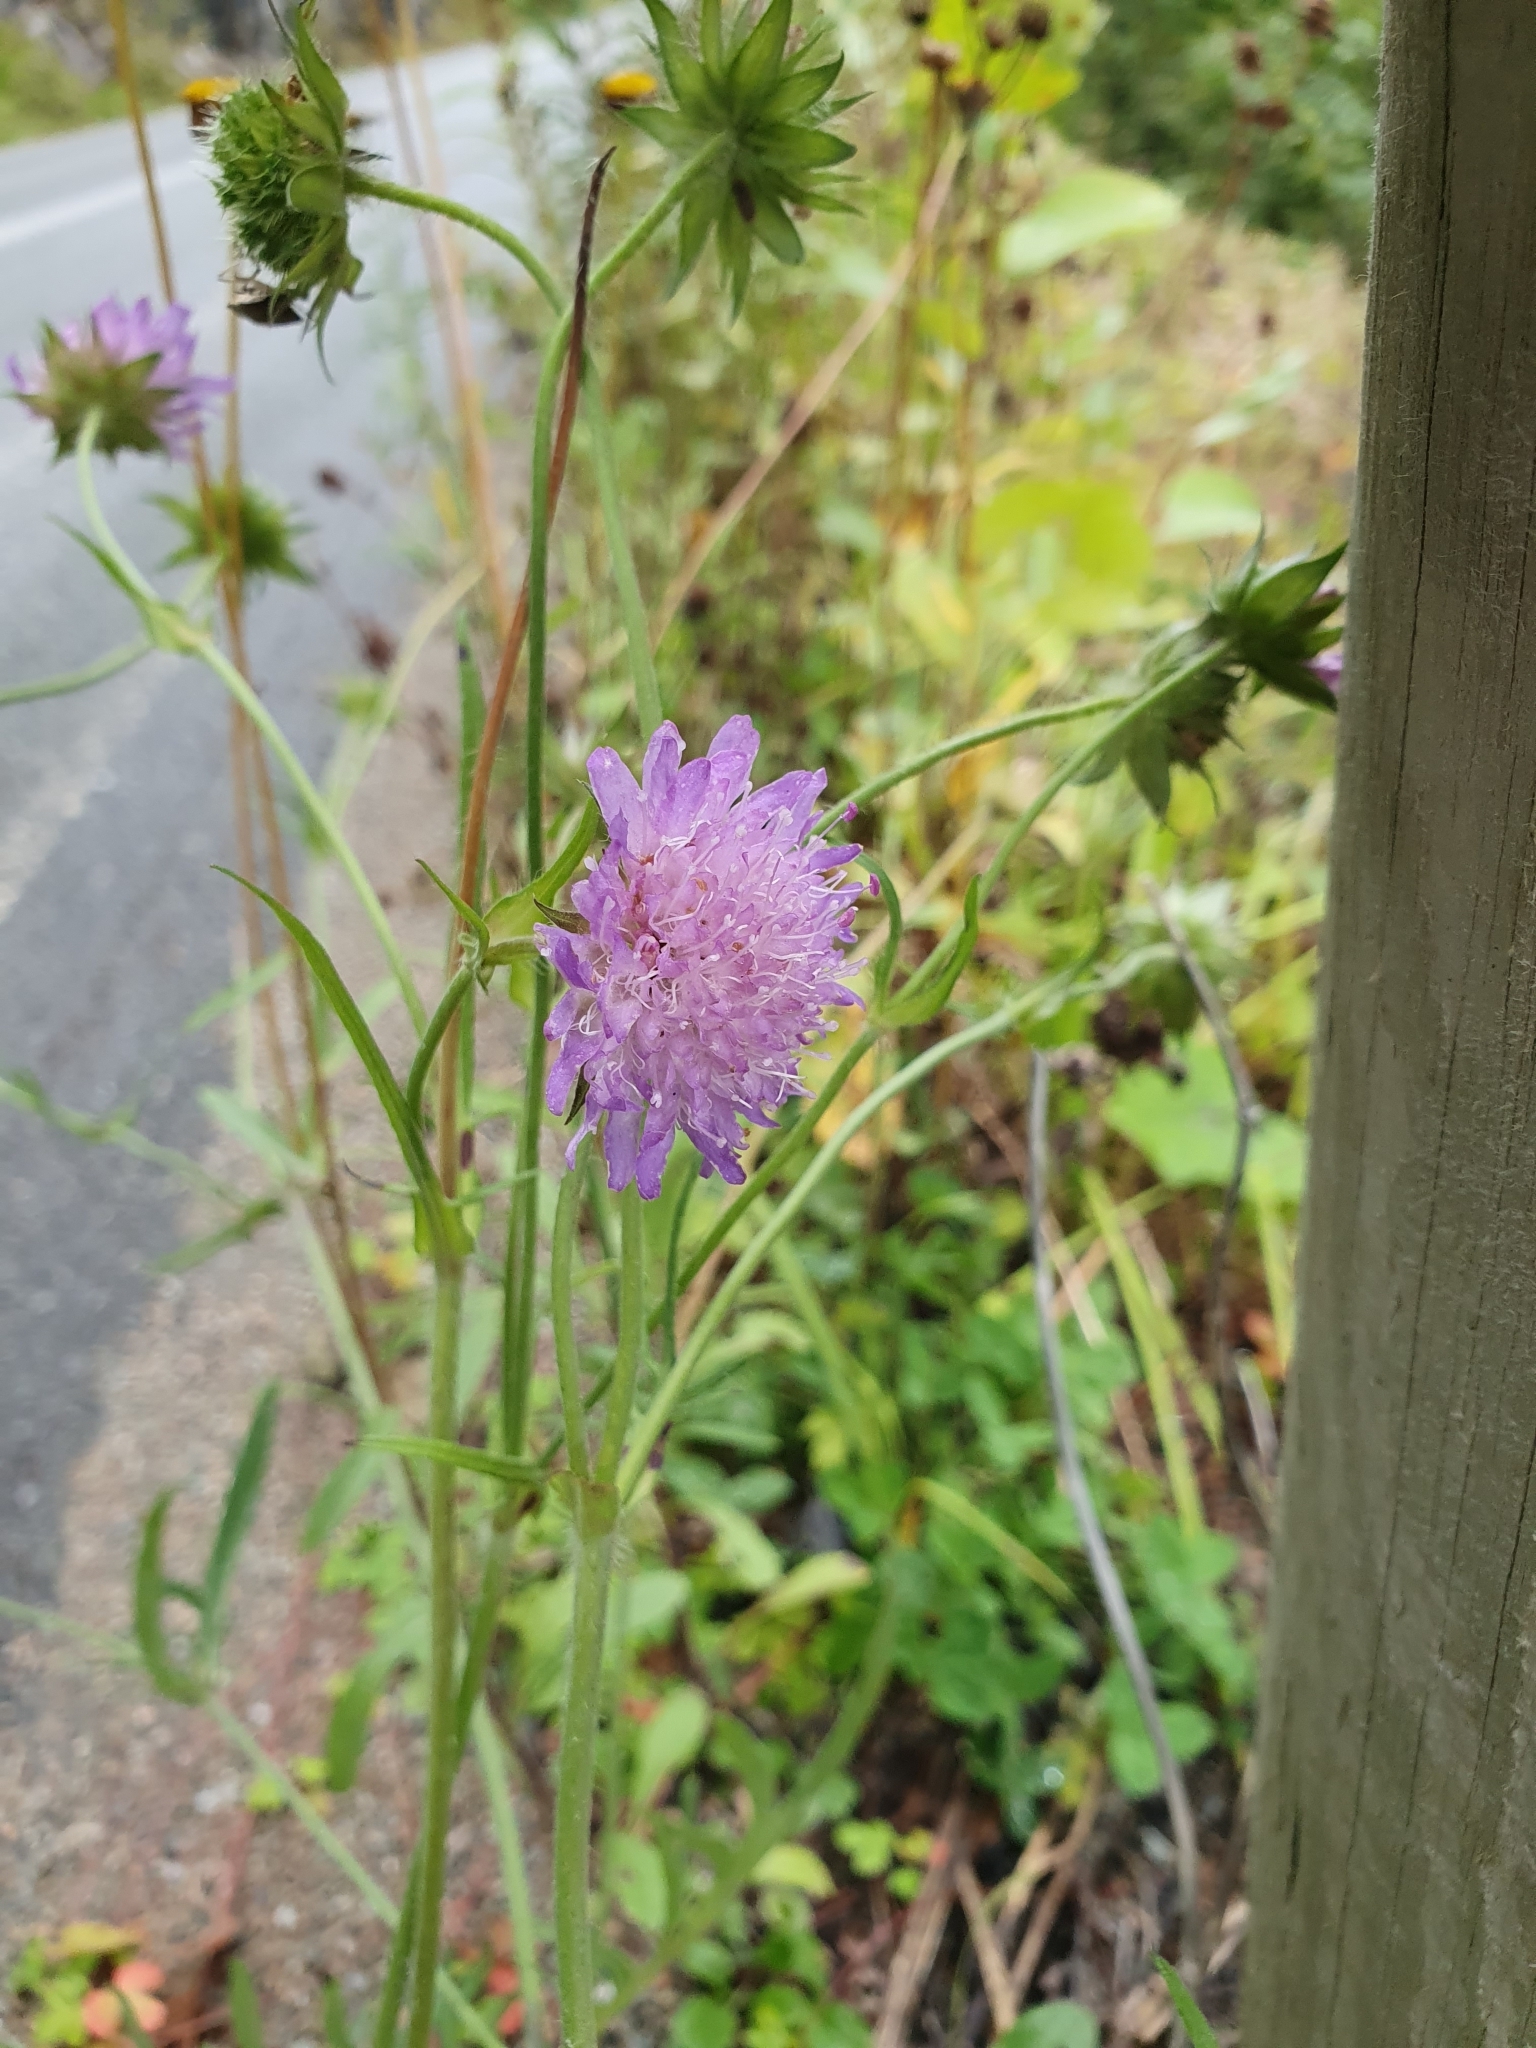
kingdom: Plantae
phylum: Tracheophyta
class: Magnoliopsida
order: Dipsacales
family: Caprifoliaceae
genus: Knautia
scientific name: Knautia arvensis
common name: Field scabiosa
